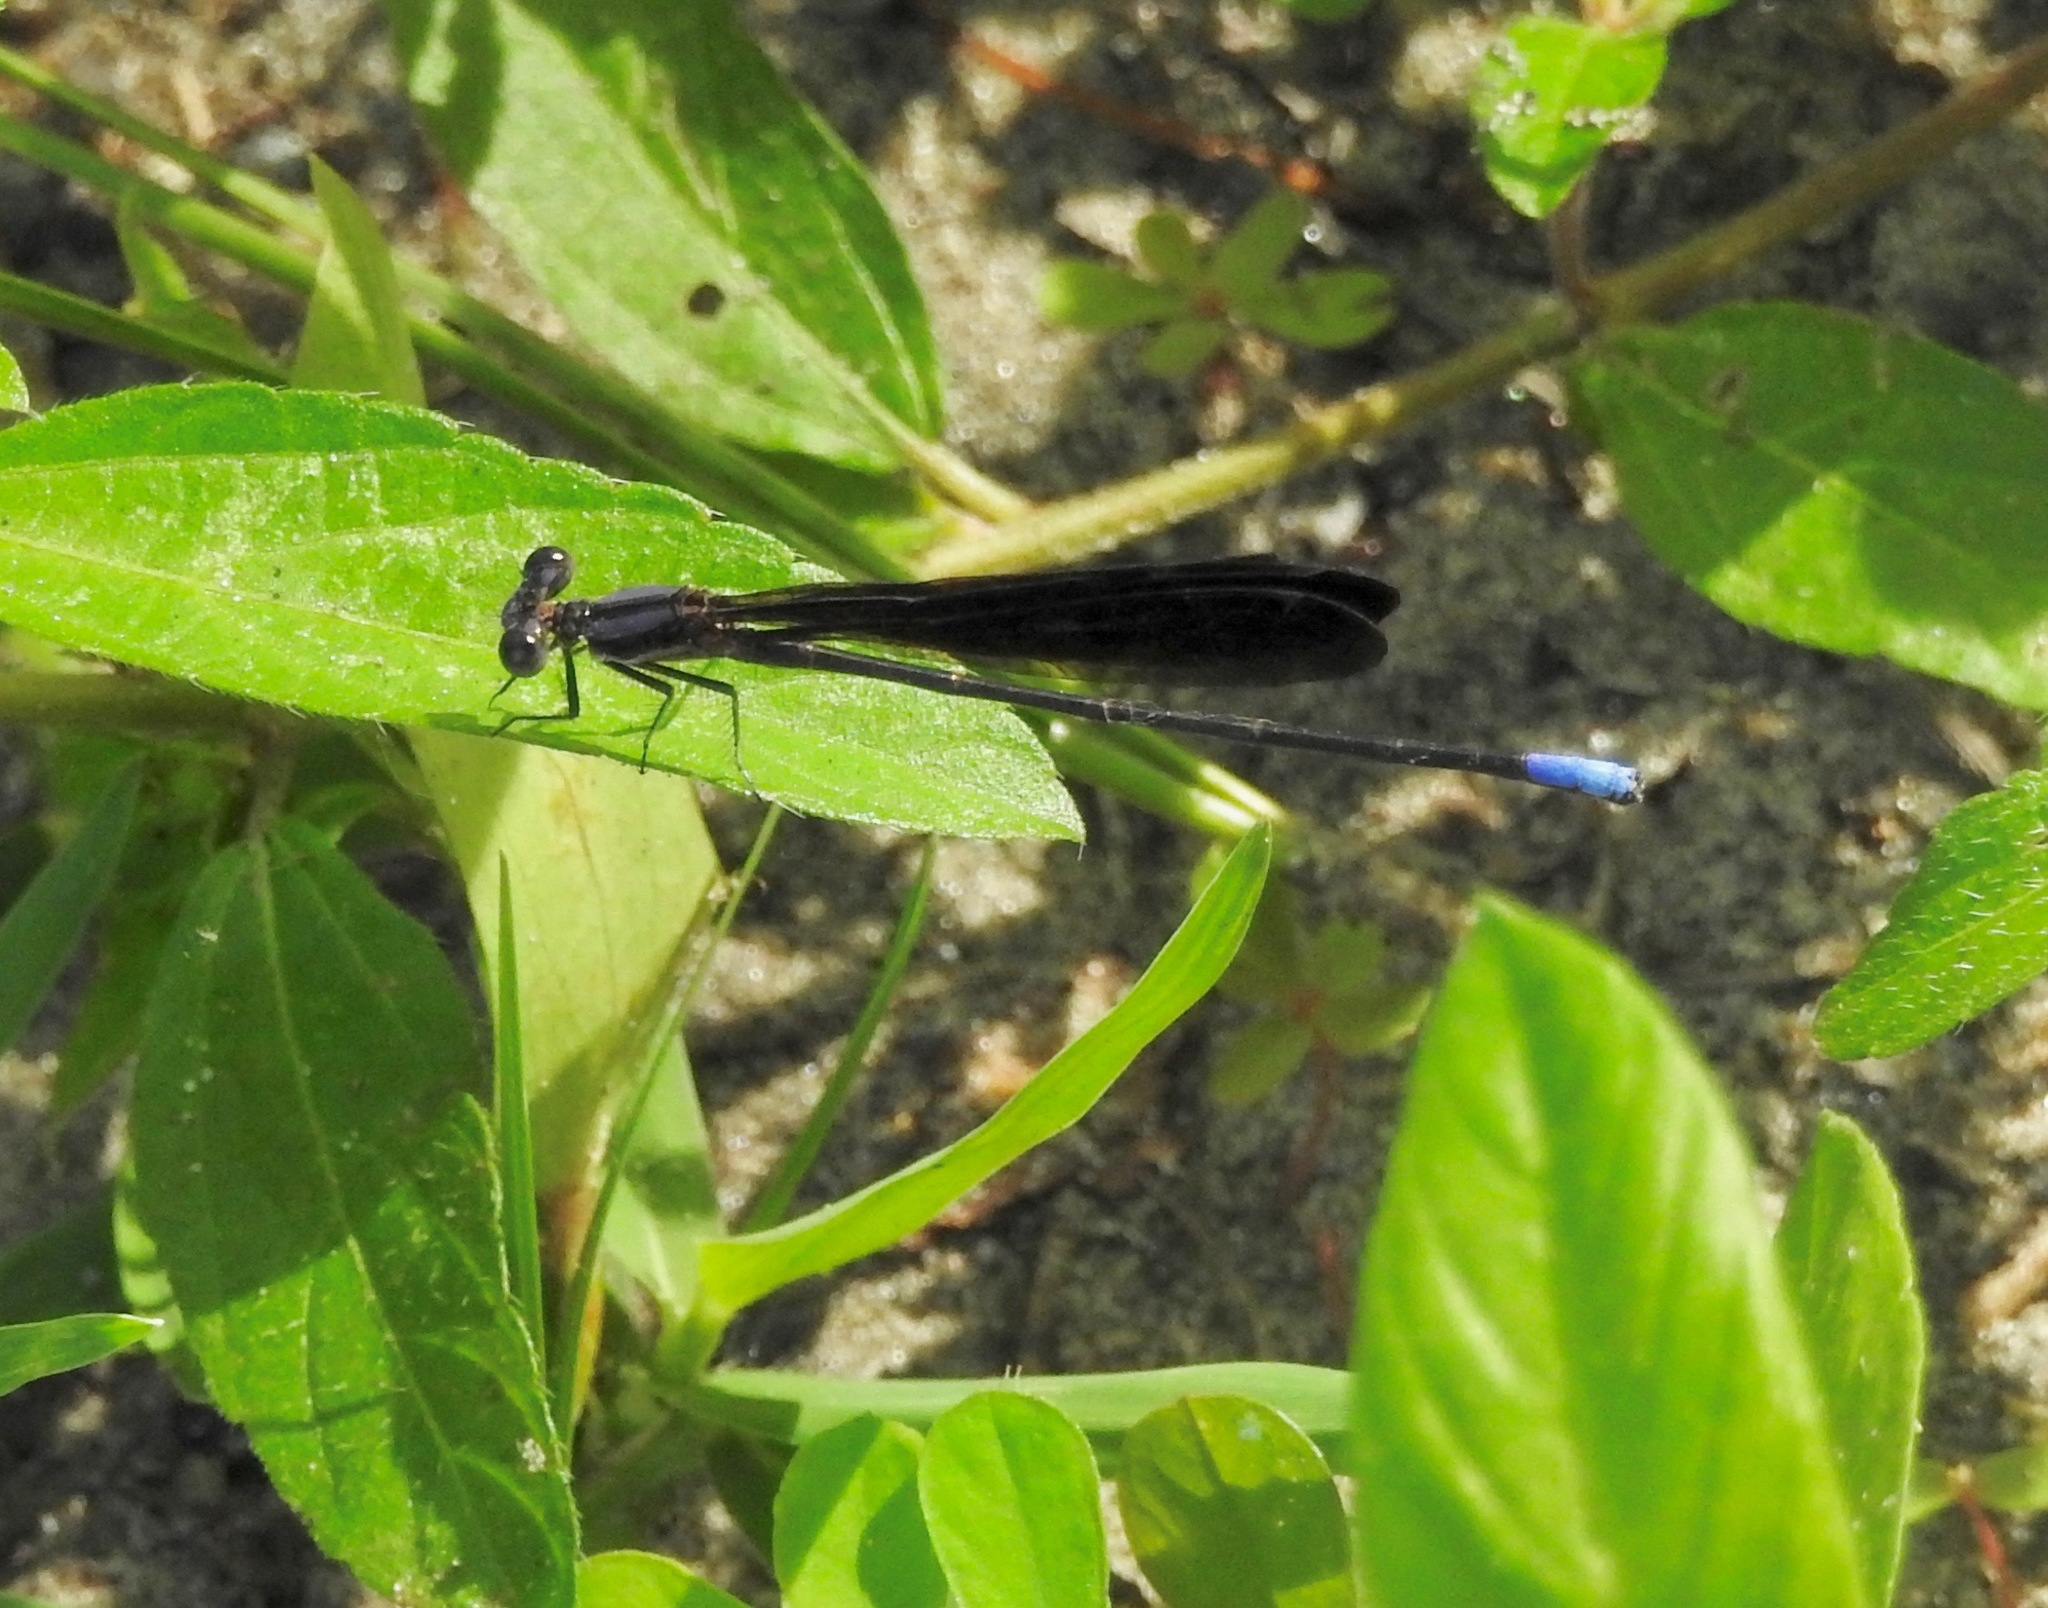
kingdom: Animalia
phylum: Arthropoda
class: Insecta
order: Odonata
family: Coenagrionidae
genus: Argia
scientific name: Argia fumipennis
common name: Variable dancer
